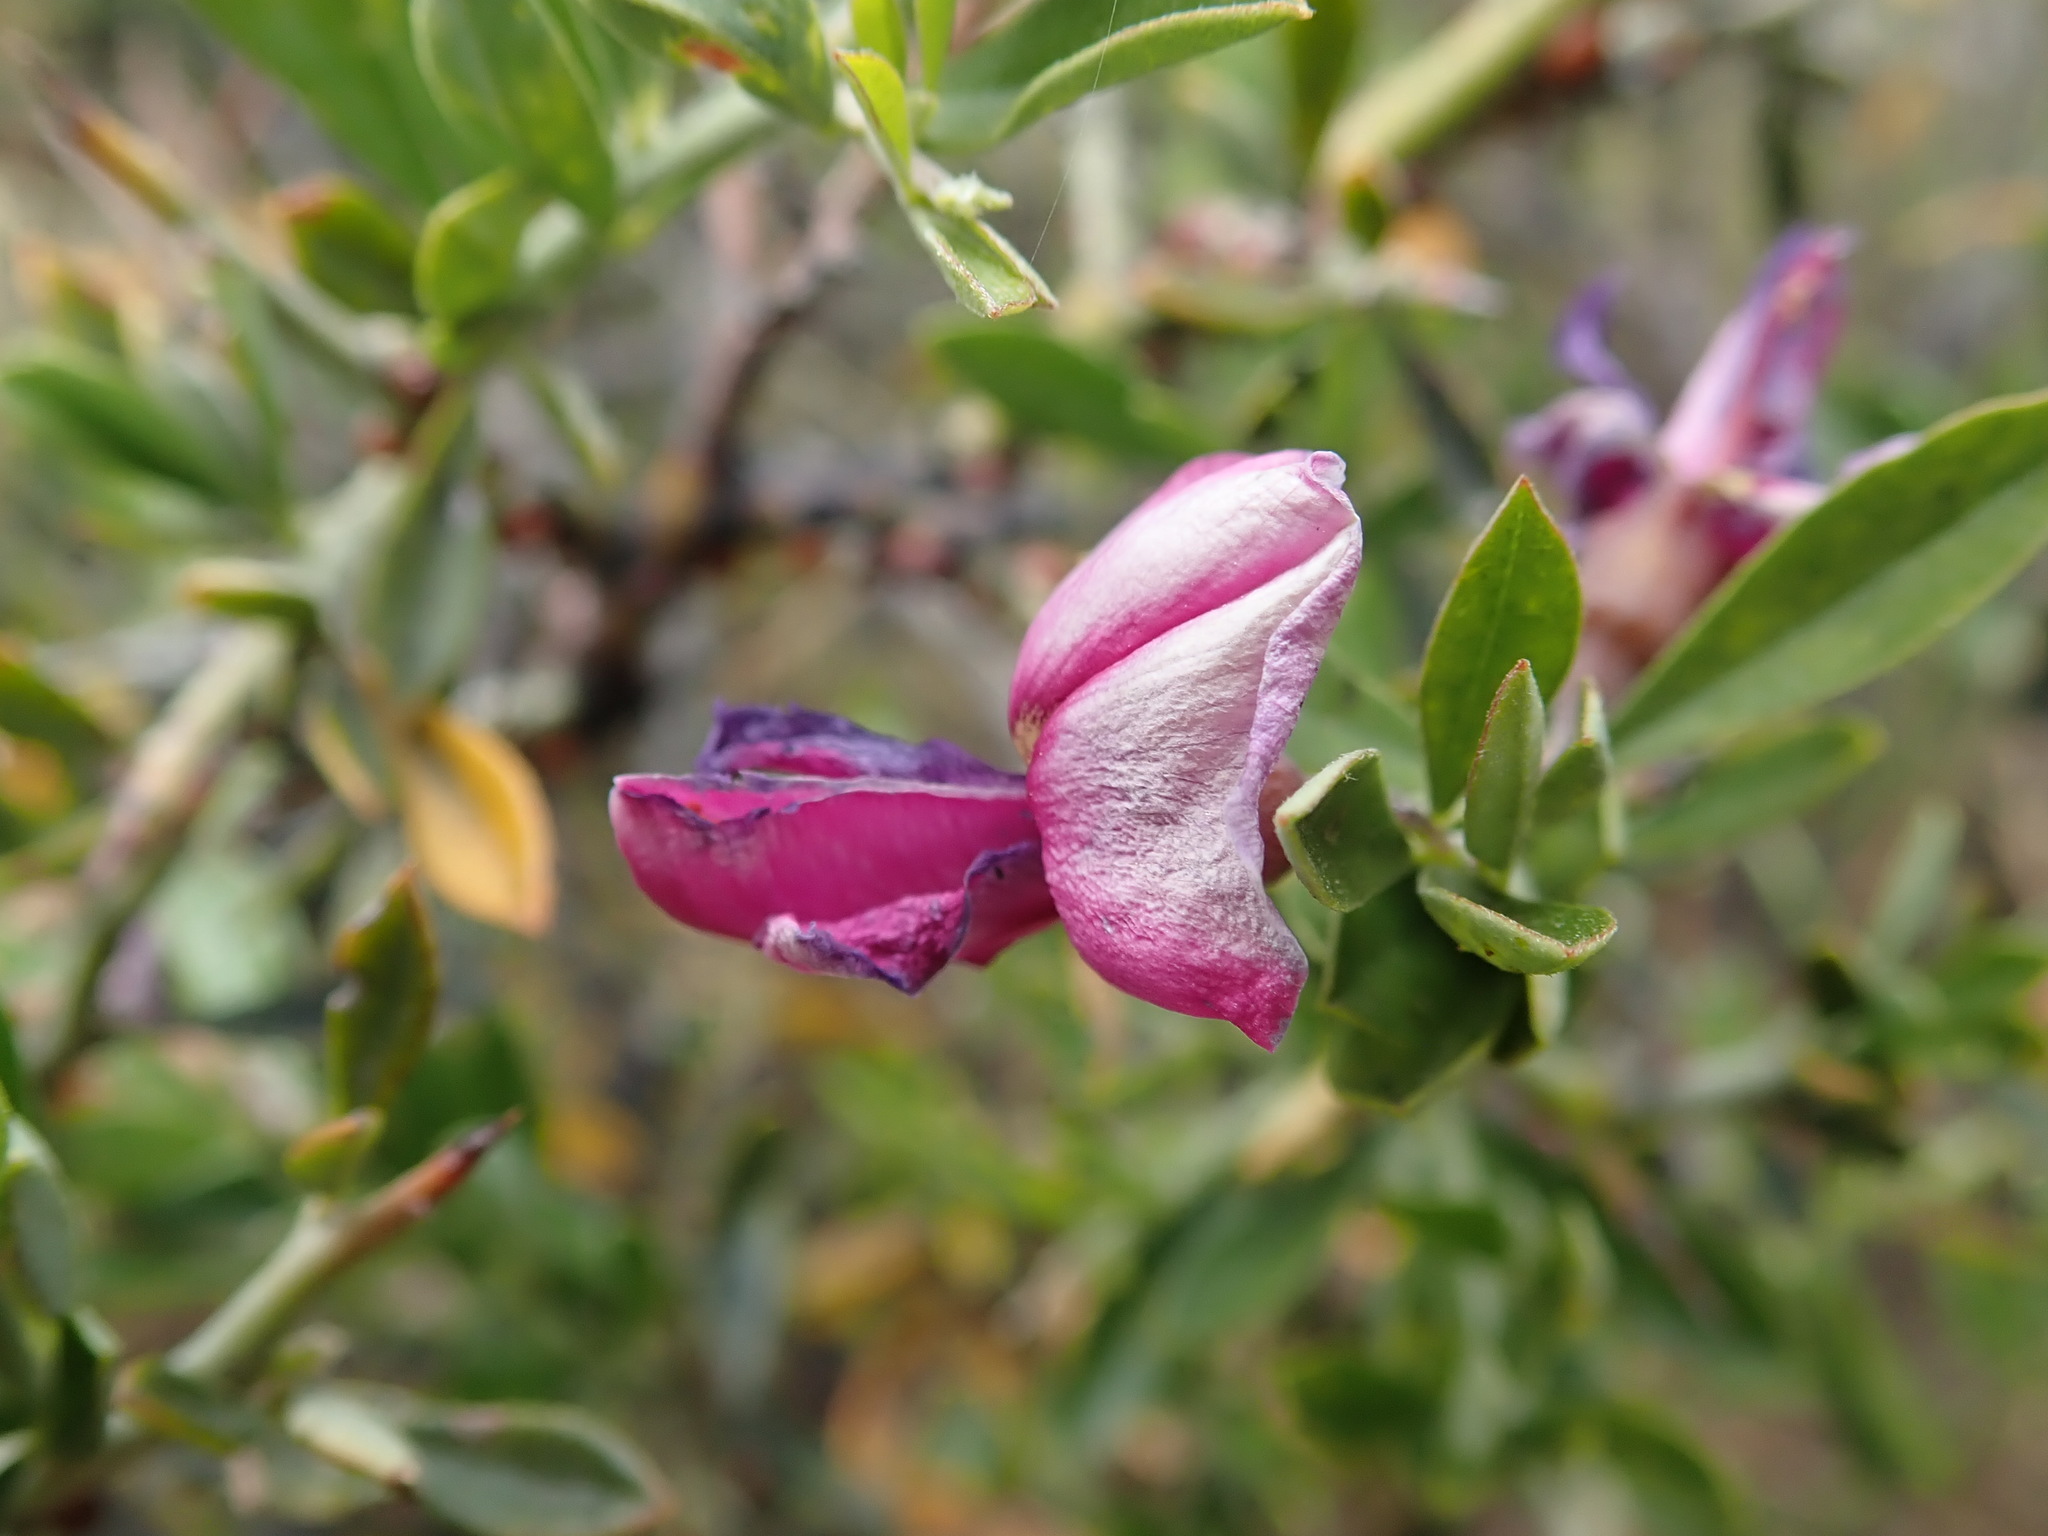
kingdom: Plantae
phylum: Tracheophyta
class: Magnoliopsida
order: Fabales
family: Fabaceae
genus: Pickeringia
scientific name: Pickeringia montana
